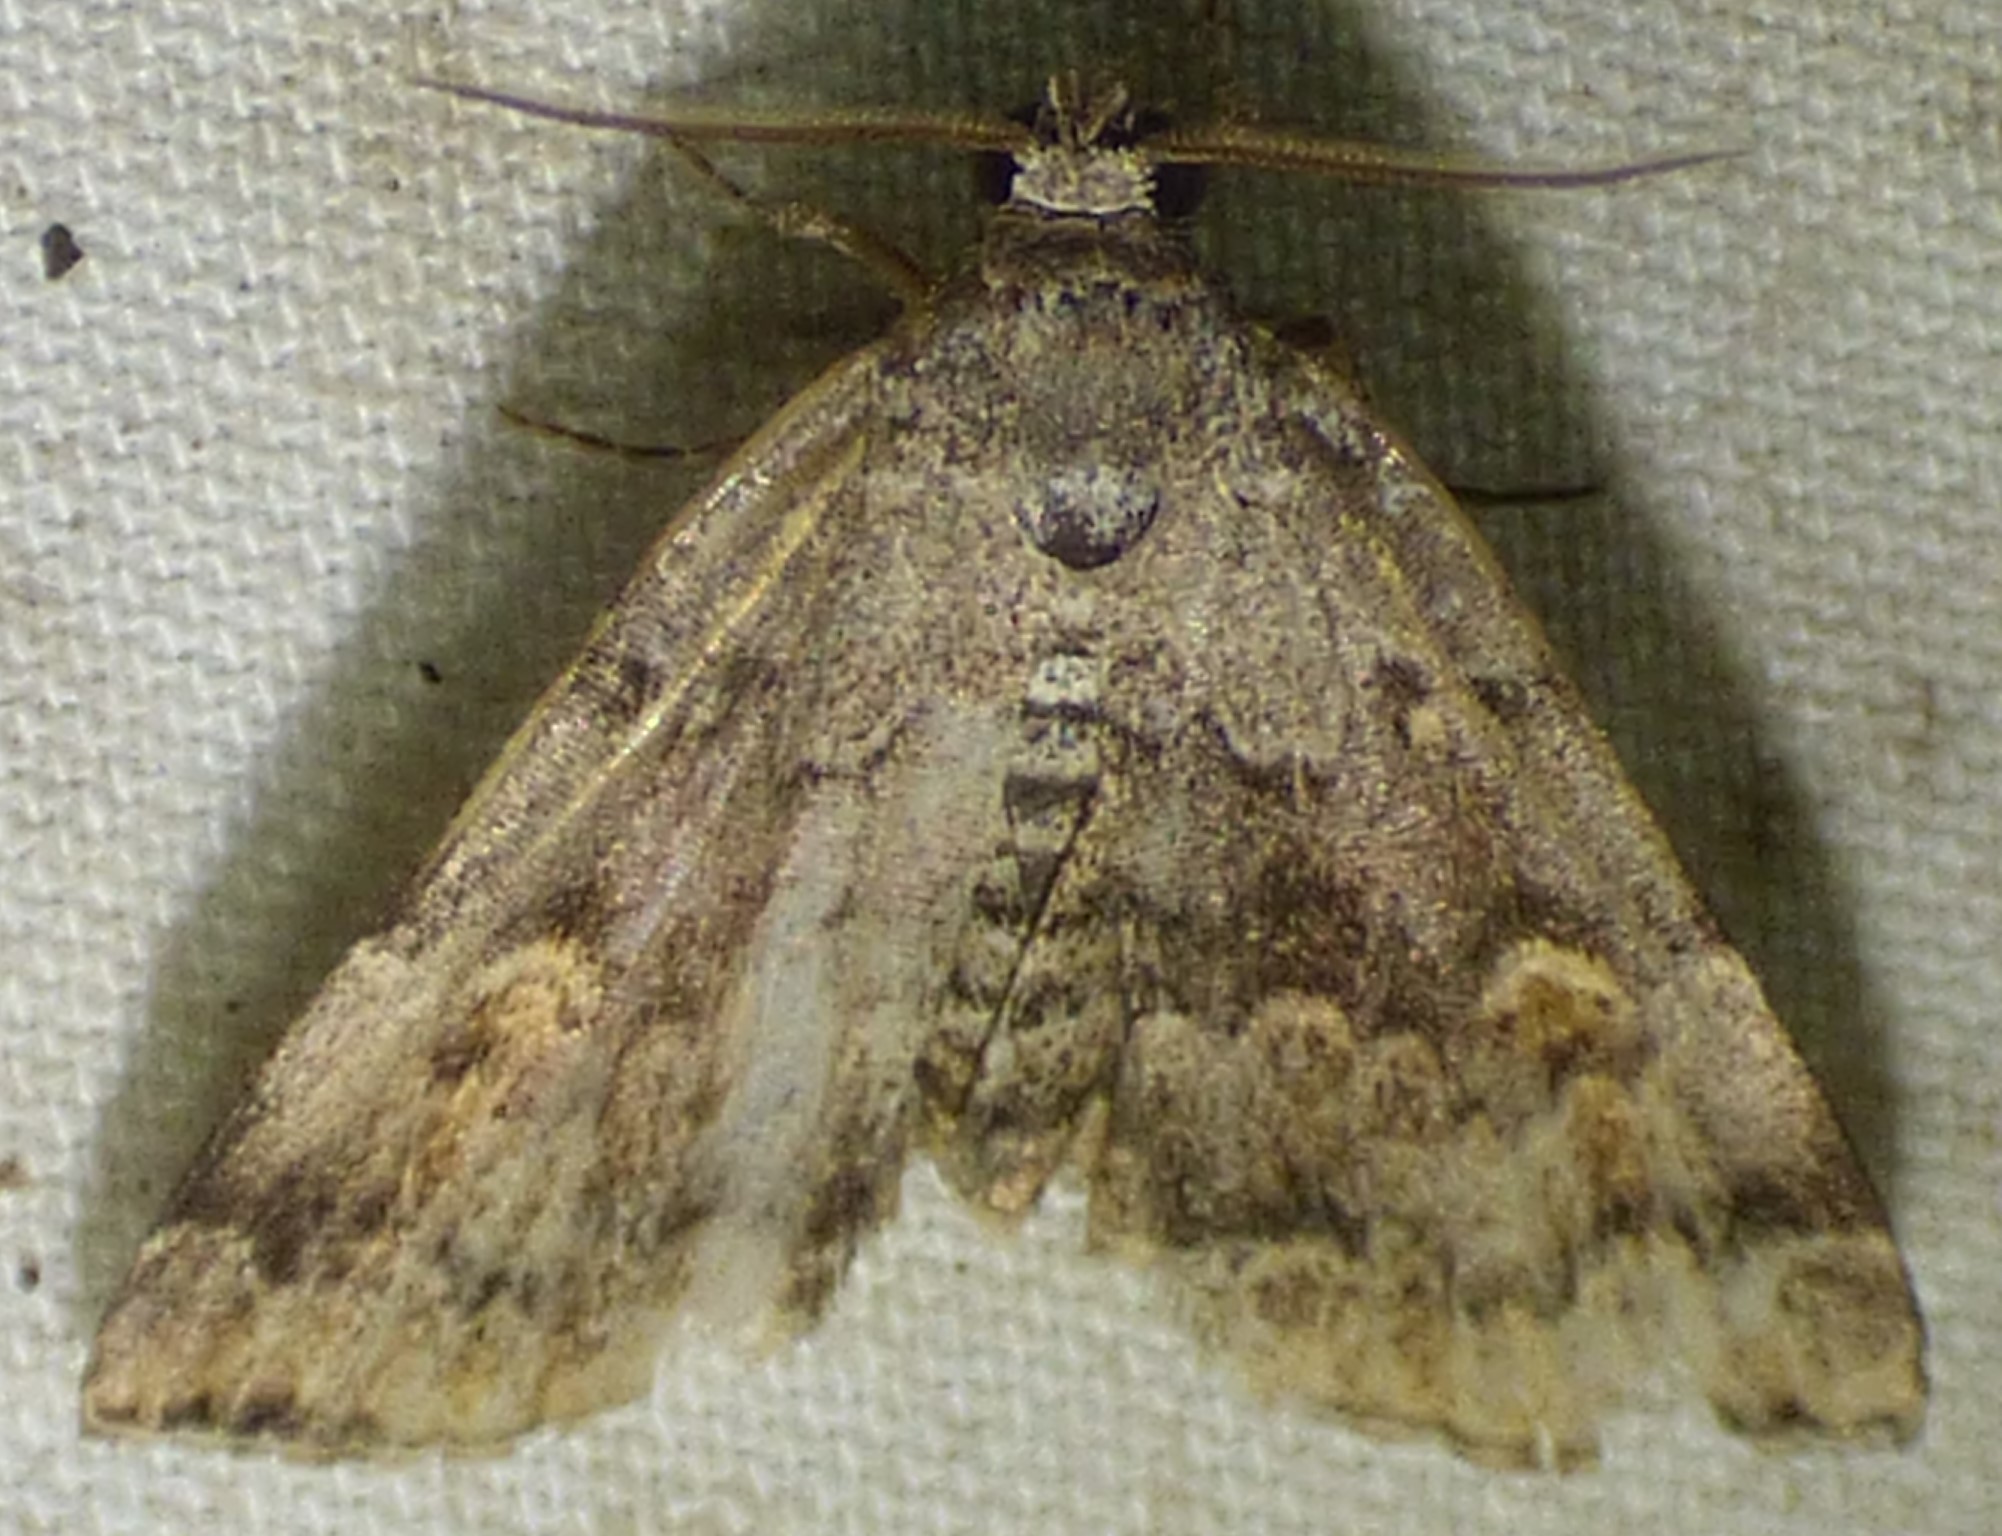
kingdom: Animalia
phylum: Arthropoda
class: Insecta
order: Lepidoptera
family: Erebidae
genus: Idia
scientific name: Idia americalis
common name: American idia moth
